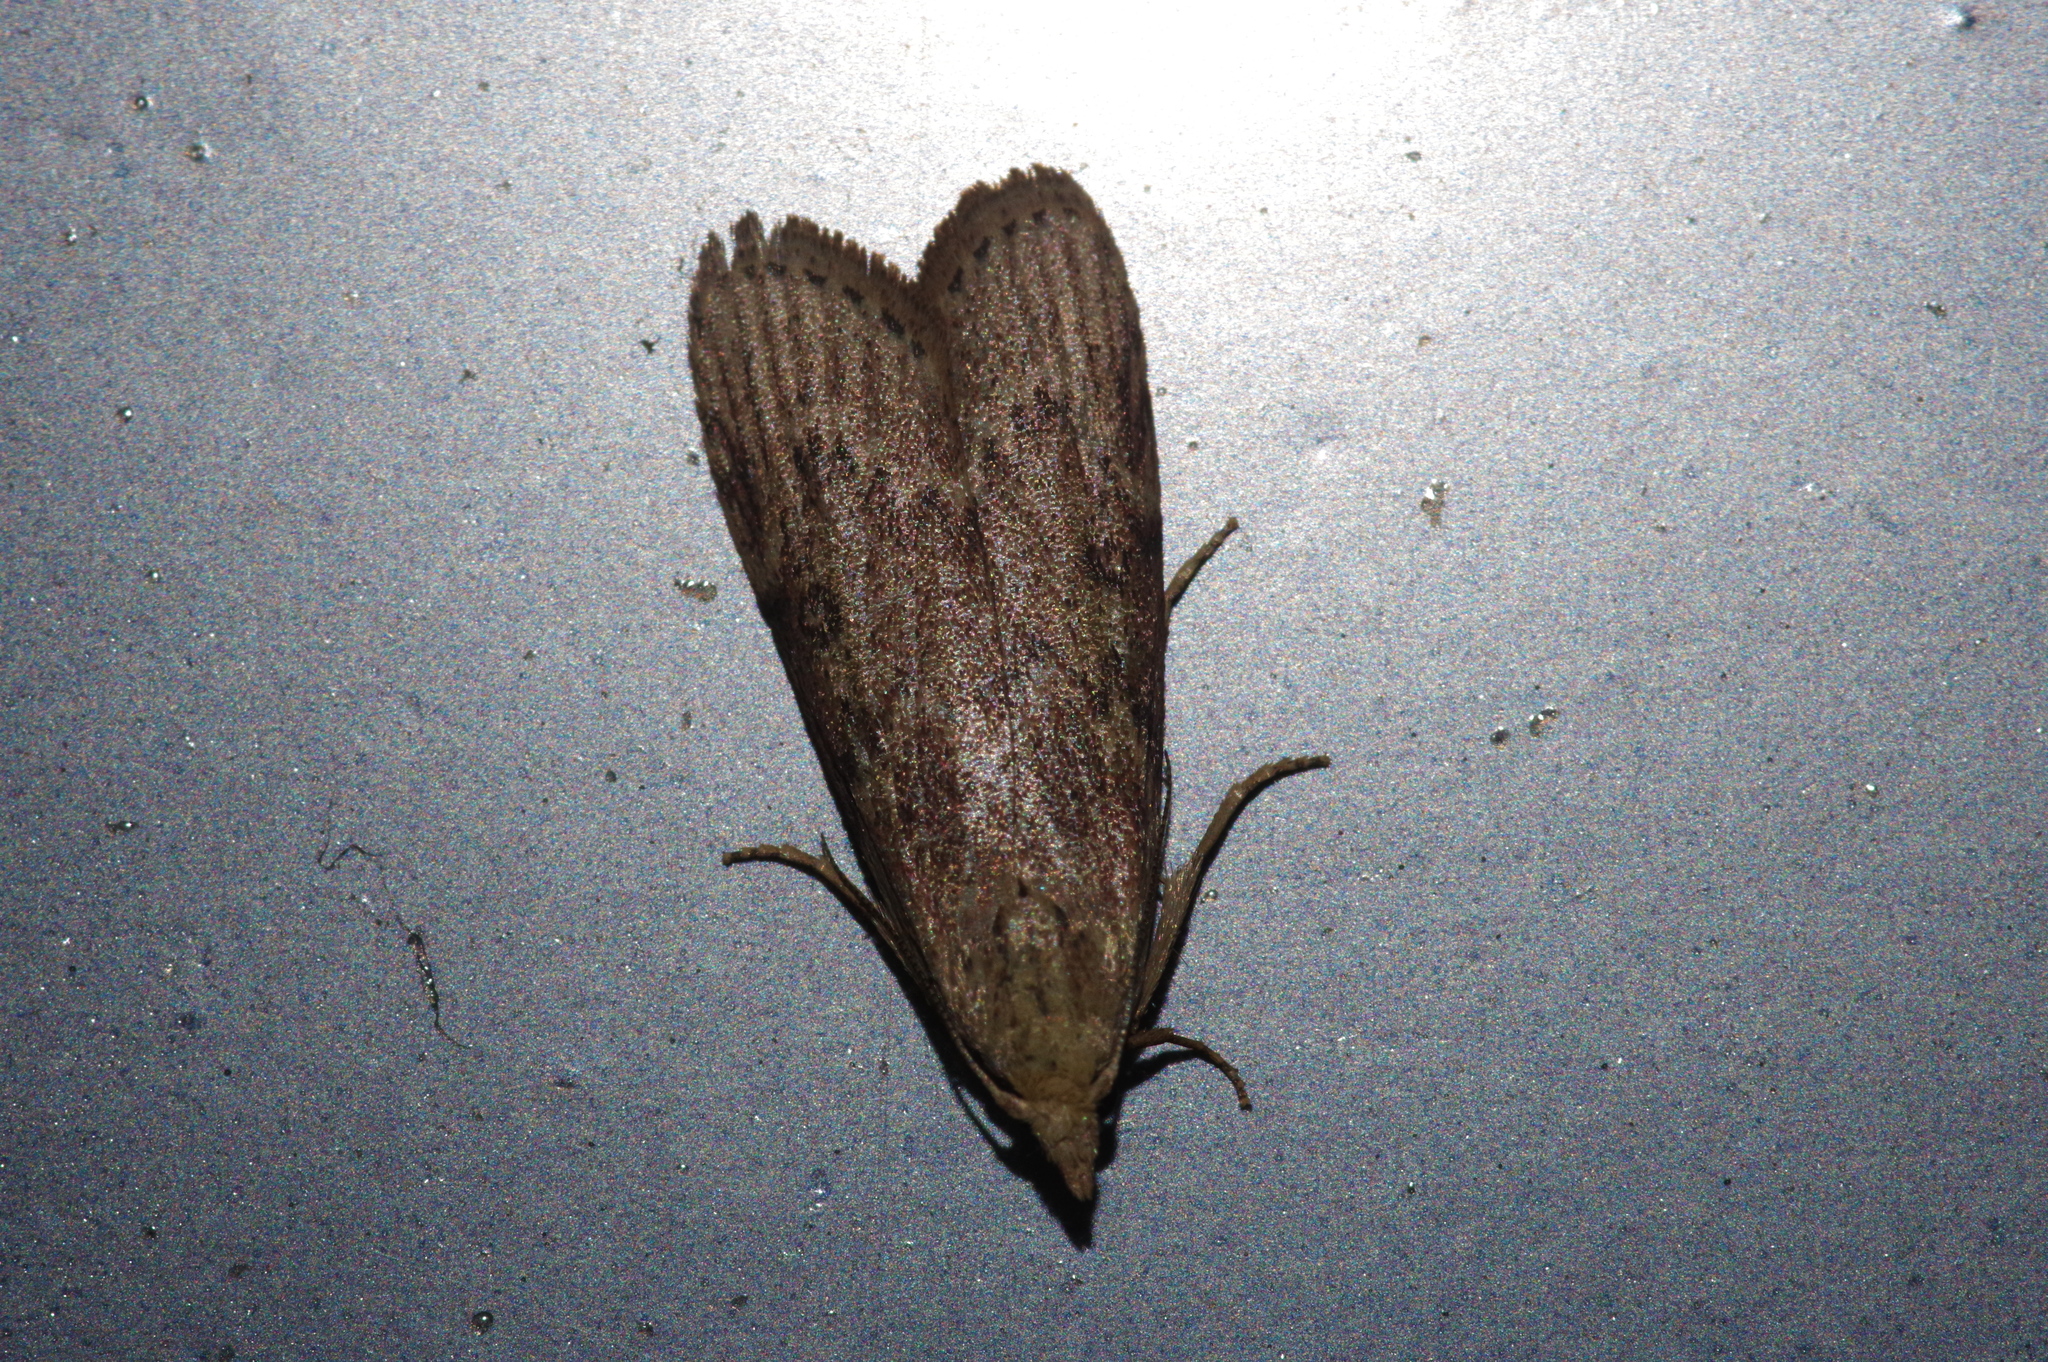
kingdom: Animalia
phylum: Arthropoda
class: Insecta
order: Lepidoptera
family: Pyralidae
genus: Lamoria
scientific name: Lamoria adaptella
